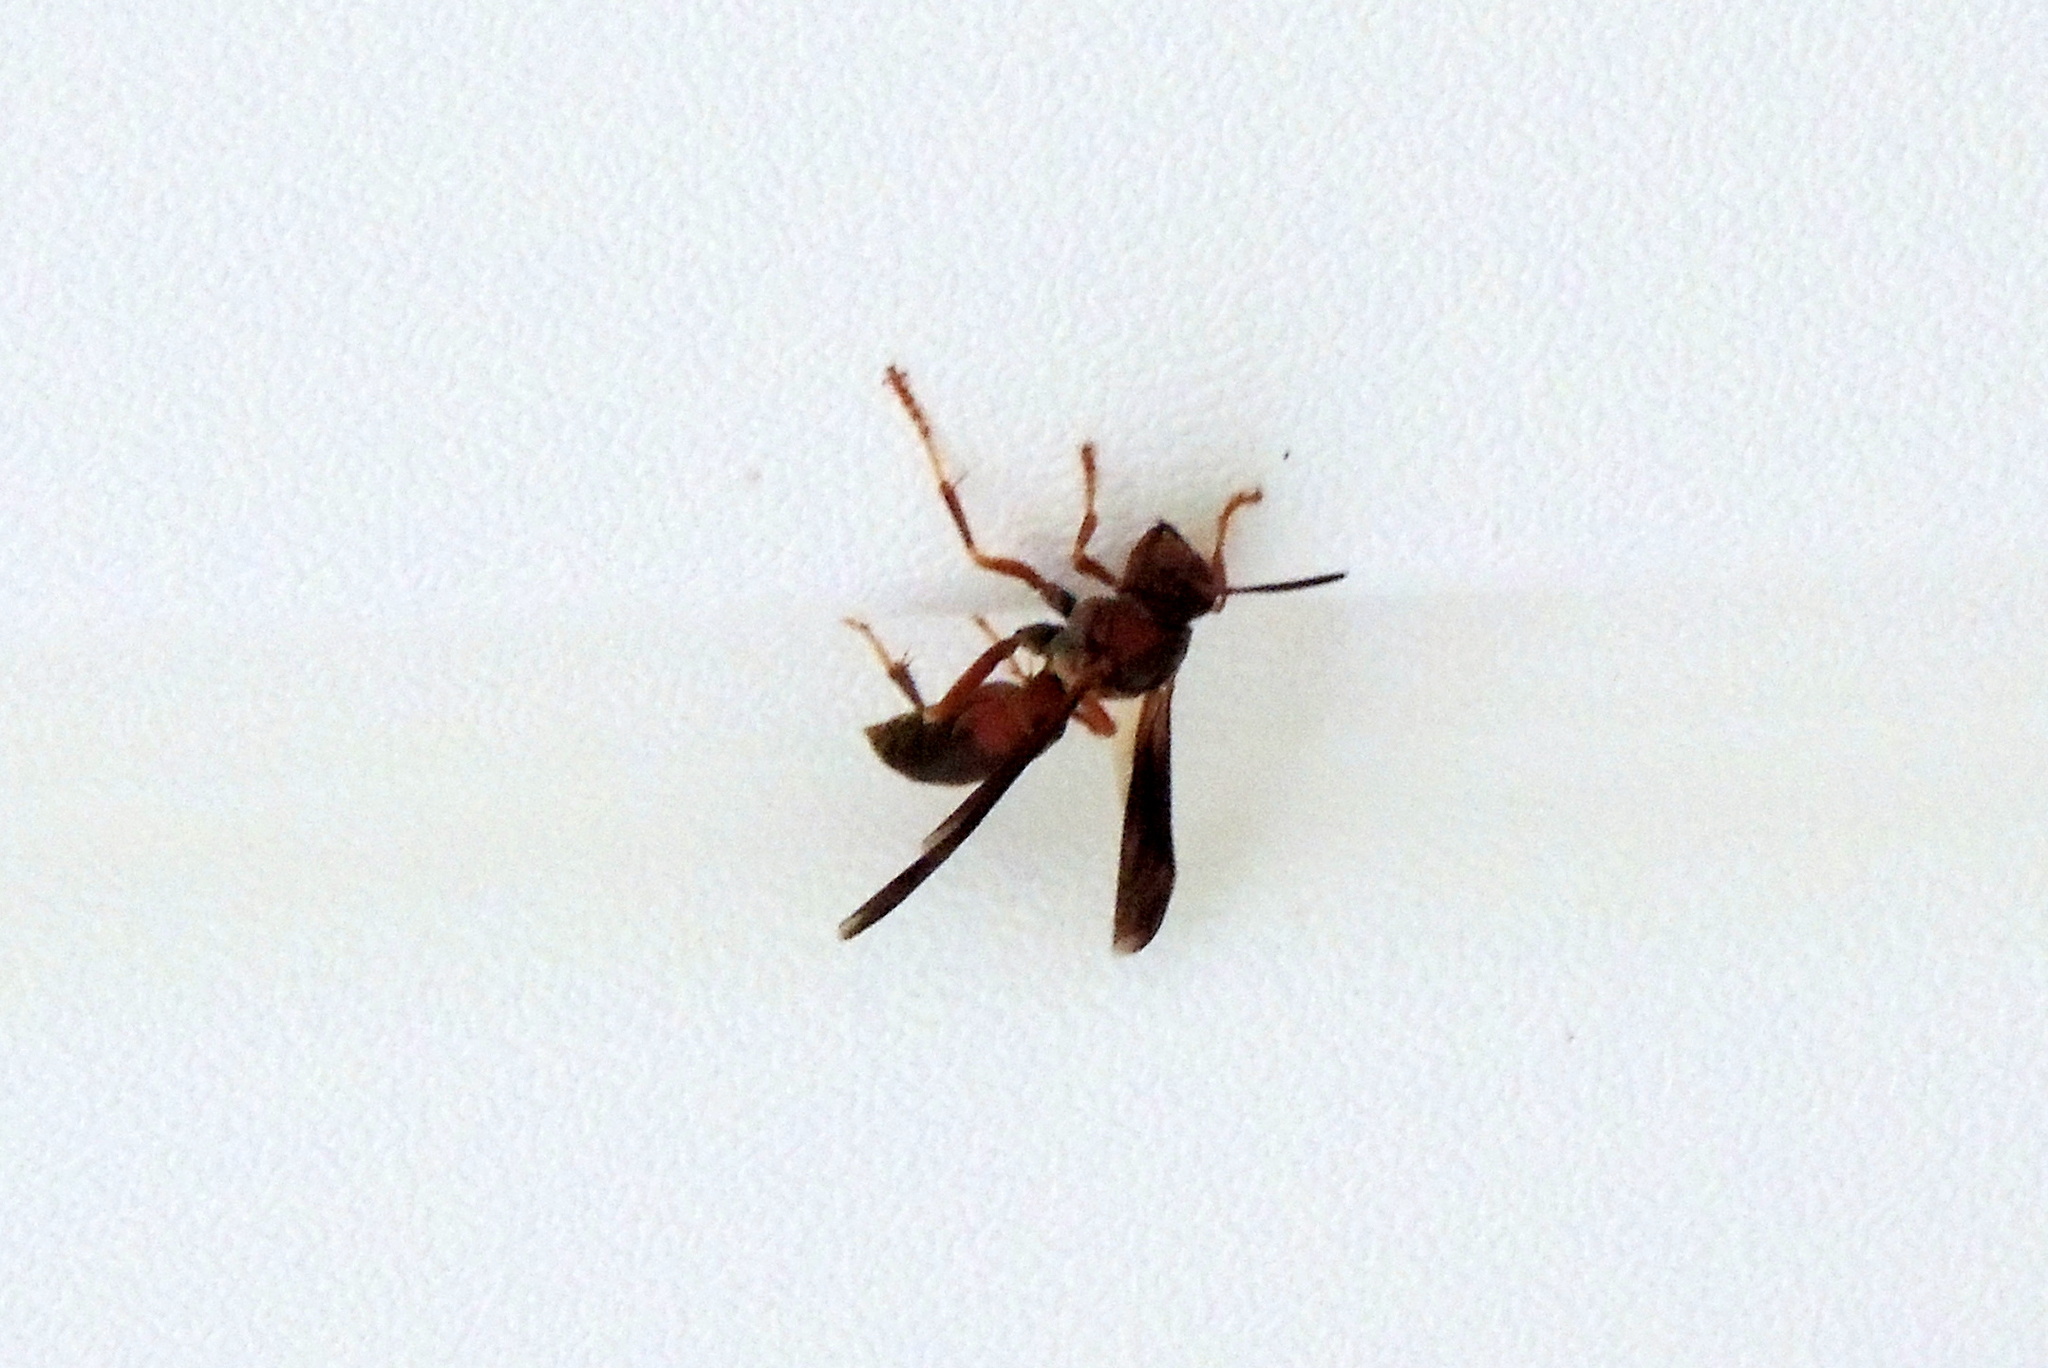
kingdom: Animalia
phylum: Arthropoda
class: Insecta
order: Hymenoptera
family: Vespidae
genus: Fuscopolistes
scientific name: Fuscopolistes
